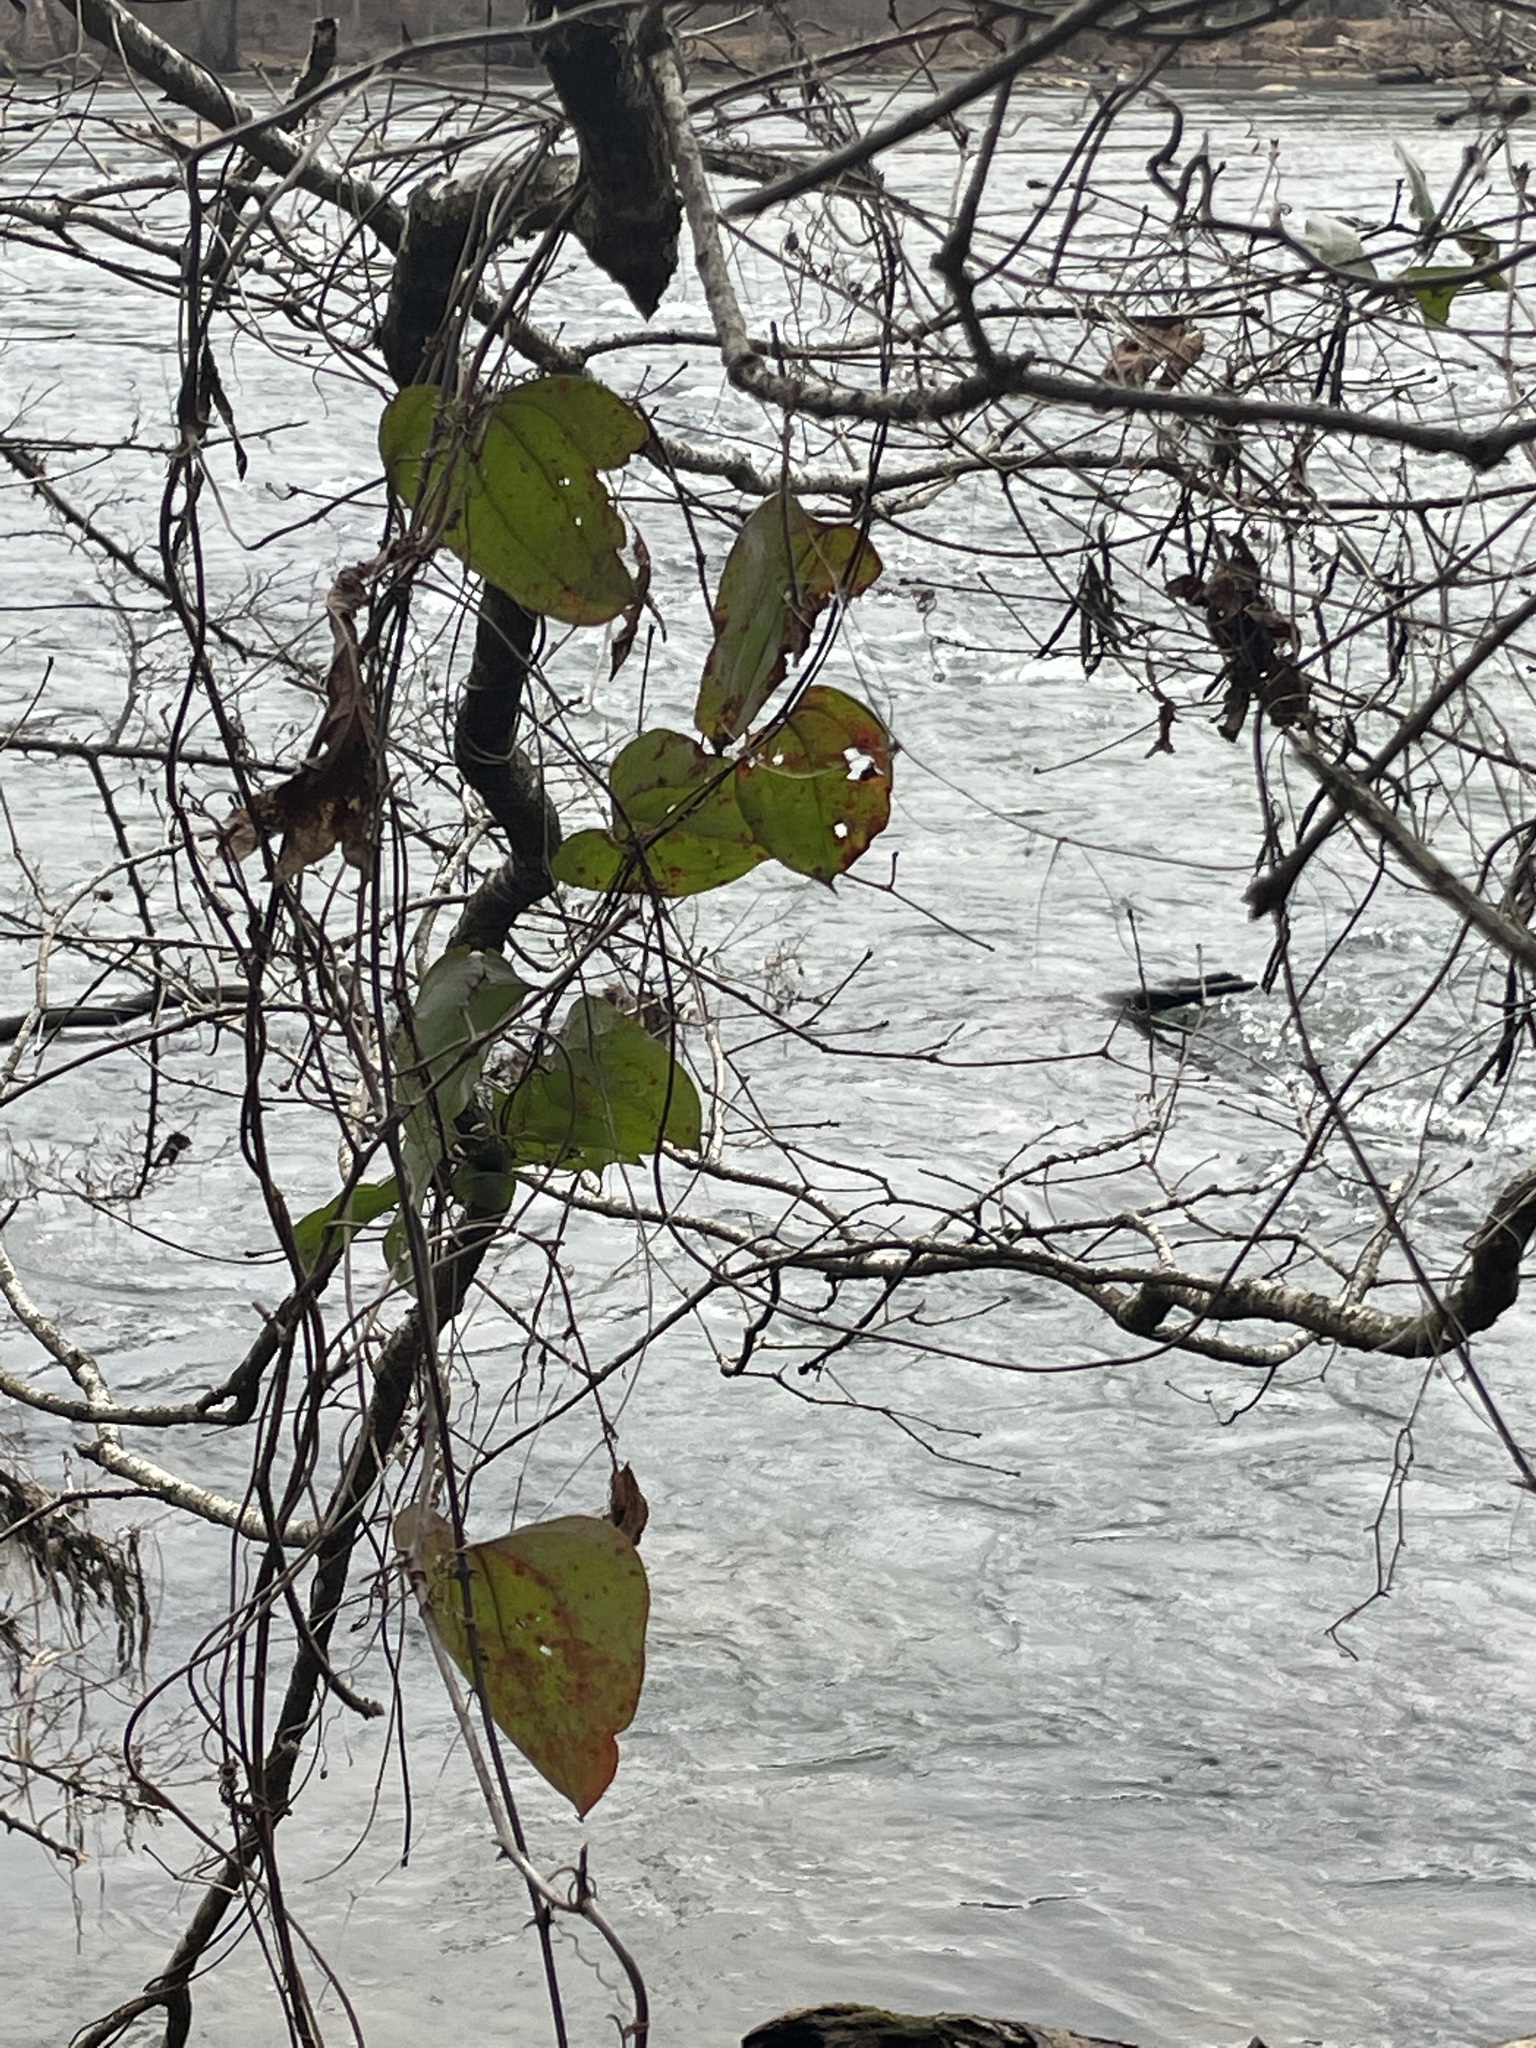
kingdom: Plantae
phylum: Tracheophyta
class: Liliopsida
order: Liliales
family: Smilacaceae
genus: Smilax
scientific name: Smilax glauca
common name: Cat greenbrier
